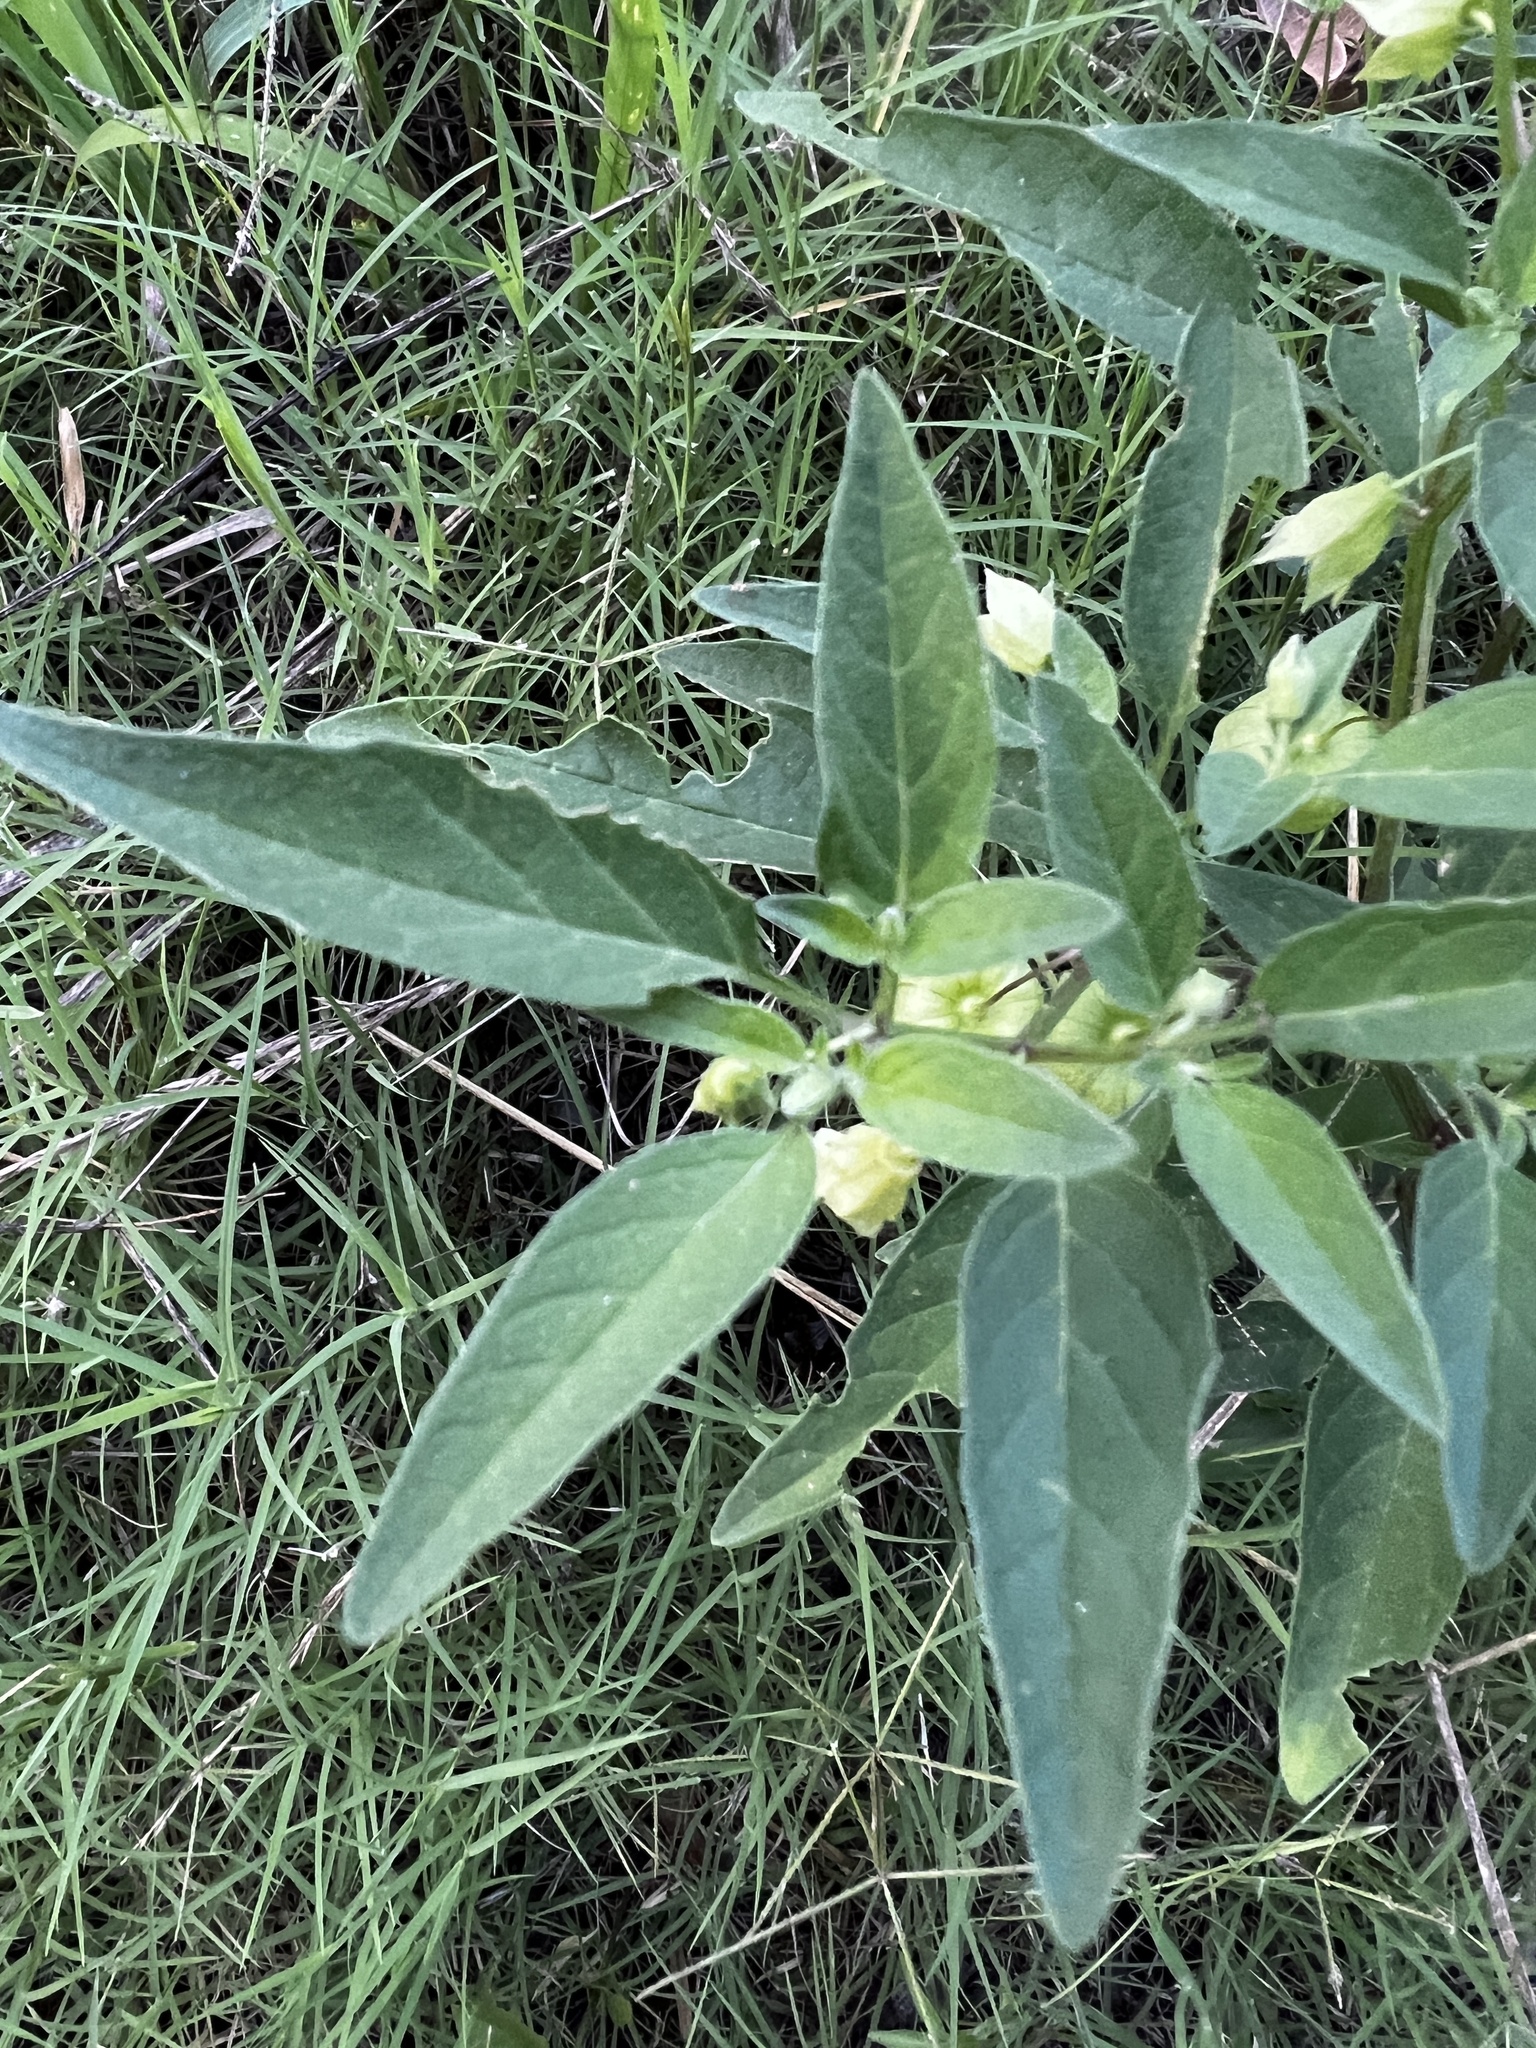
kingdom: Plantae
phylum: Tracheophyta
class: Magnoliopsida
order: Solanales
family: Solanaceae
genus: Physalis
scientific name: Physalis longifolia
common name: Common ground-cherry
